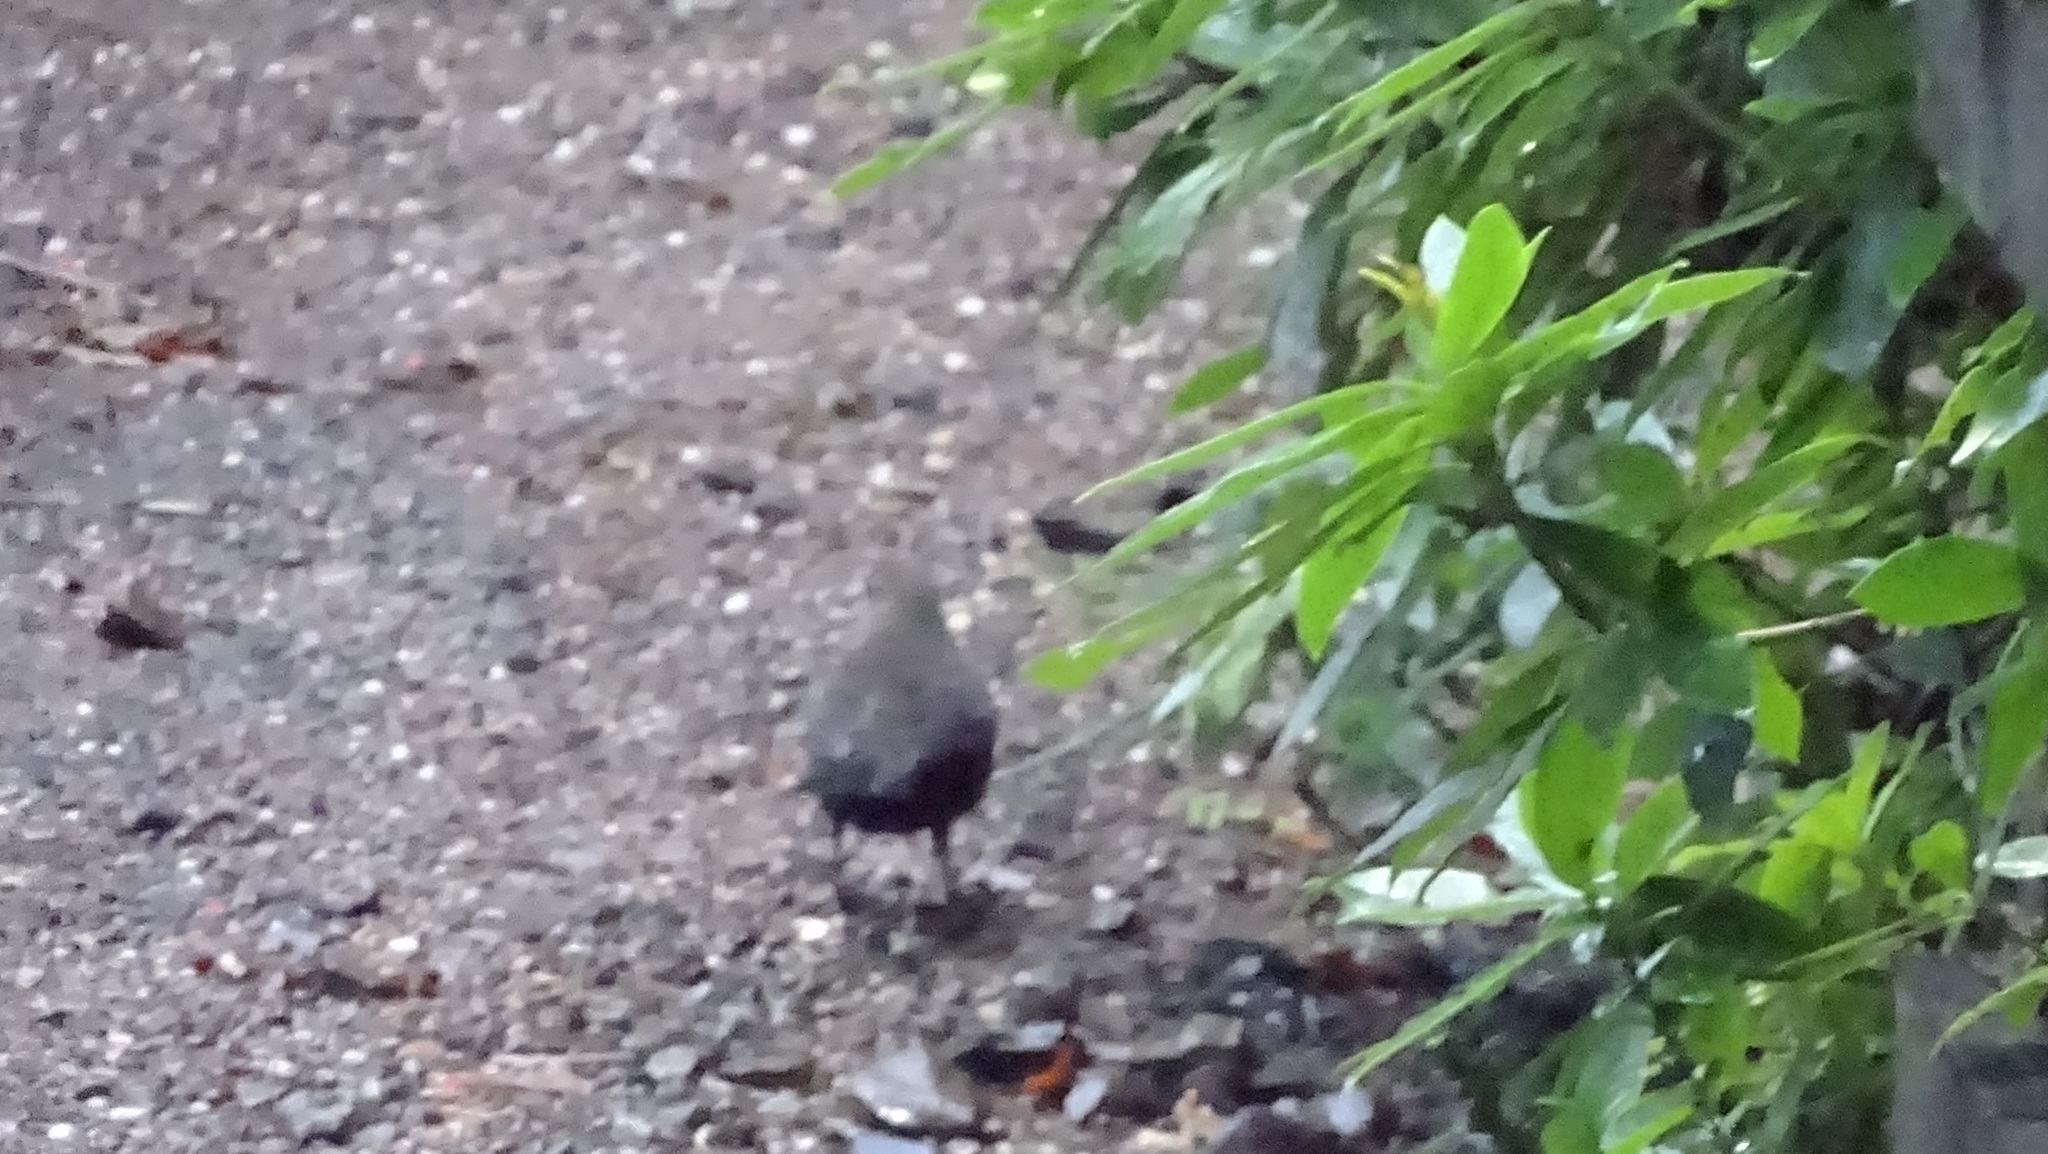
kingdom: Animalia
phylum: Chordata
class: Aves
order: Passeriformes
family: Turdidae
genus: Turdus
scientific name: Turdus merula
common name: Common blackbird
